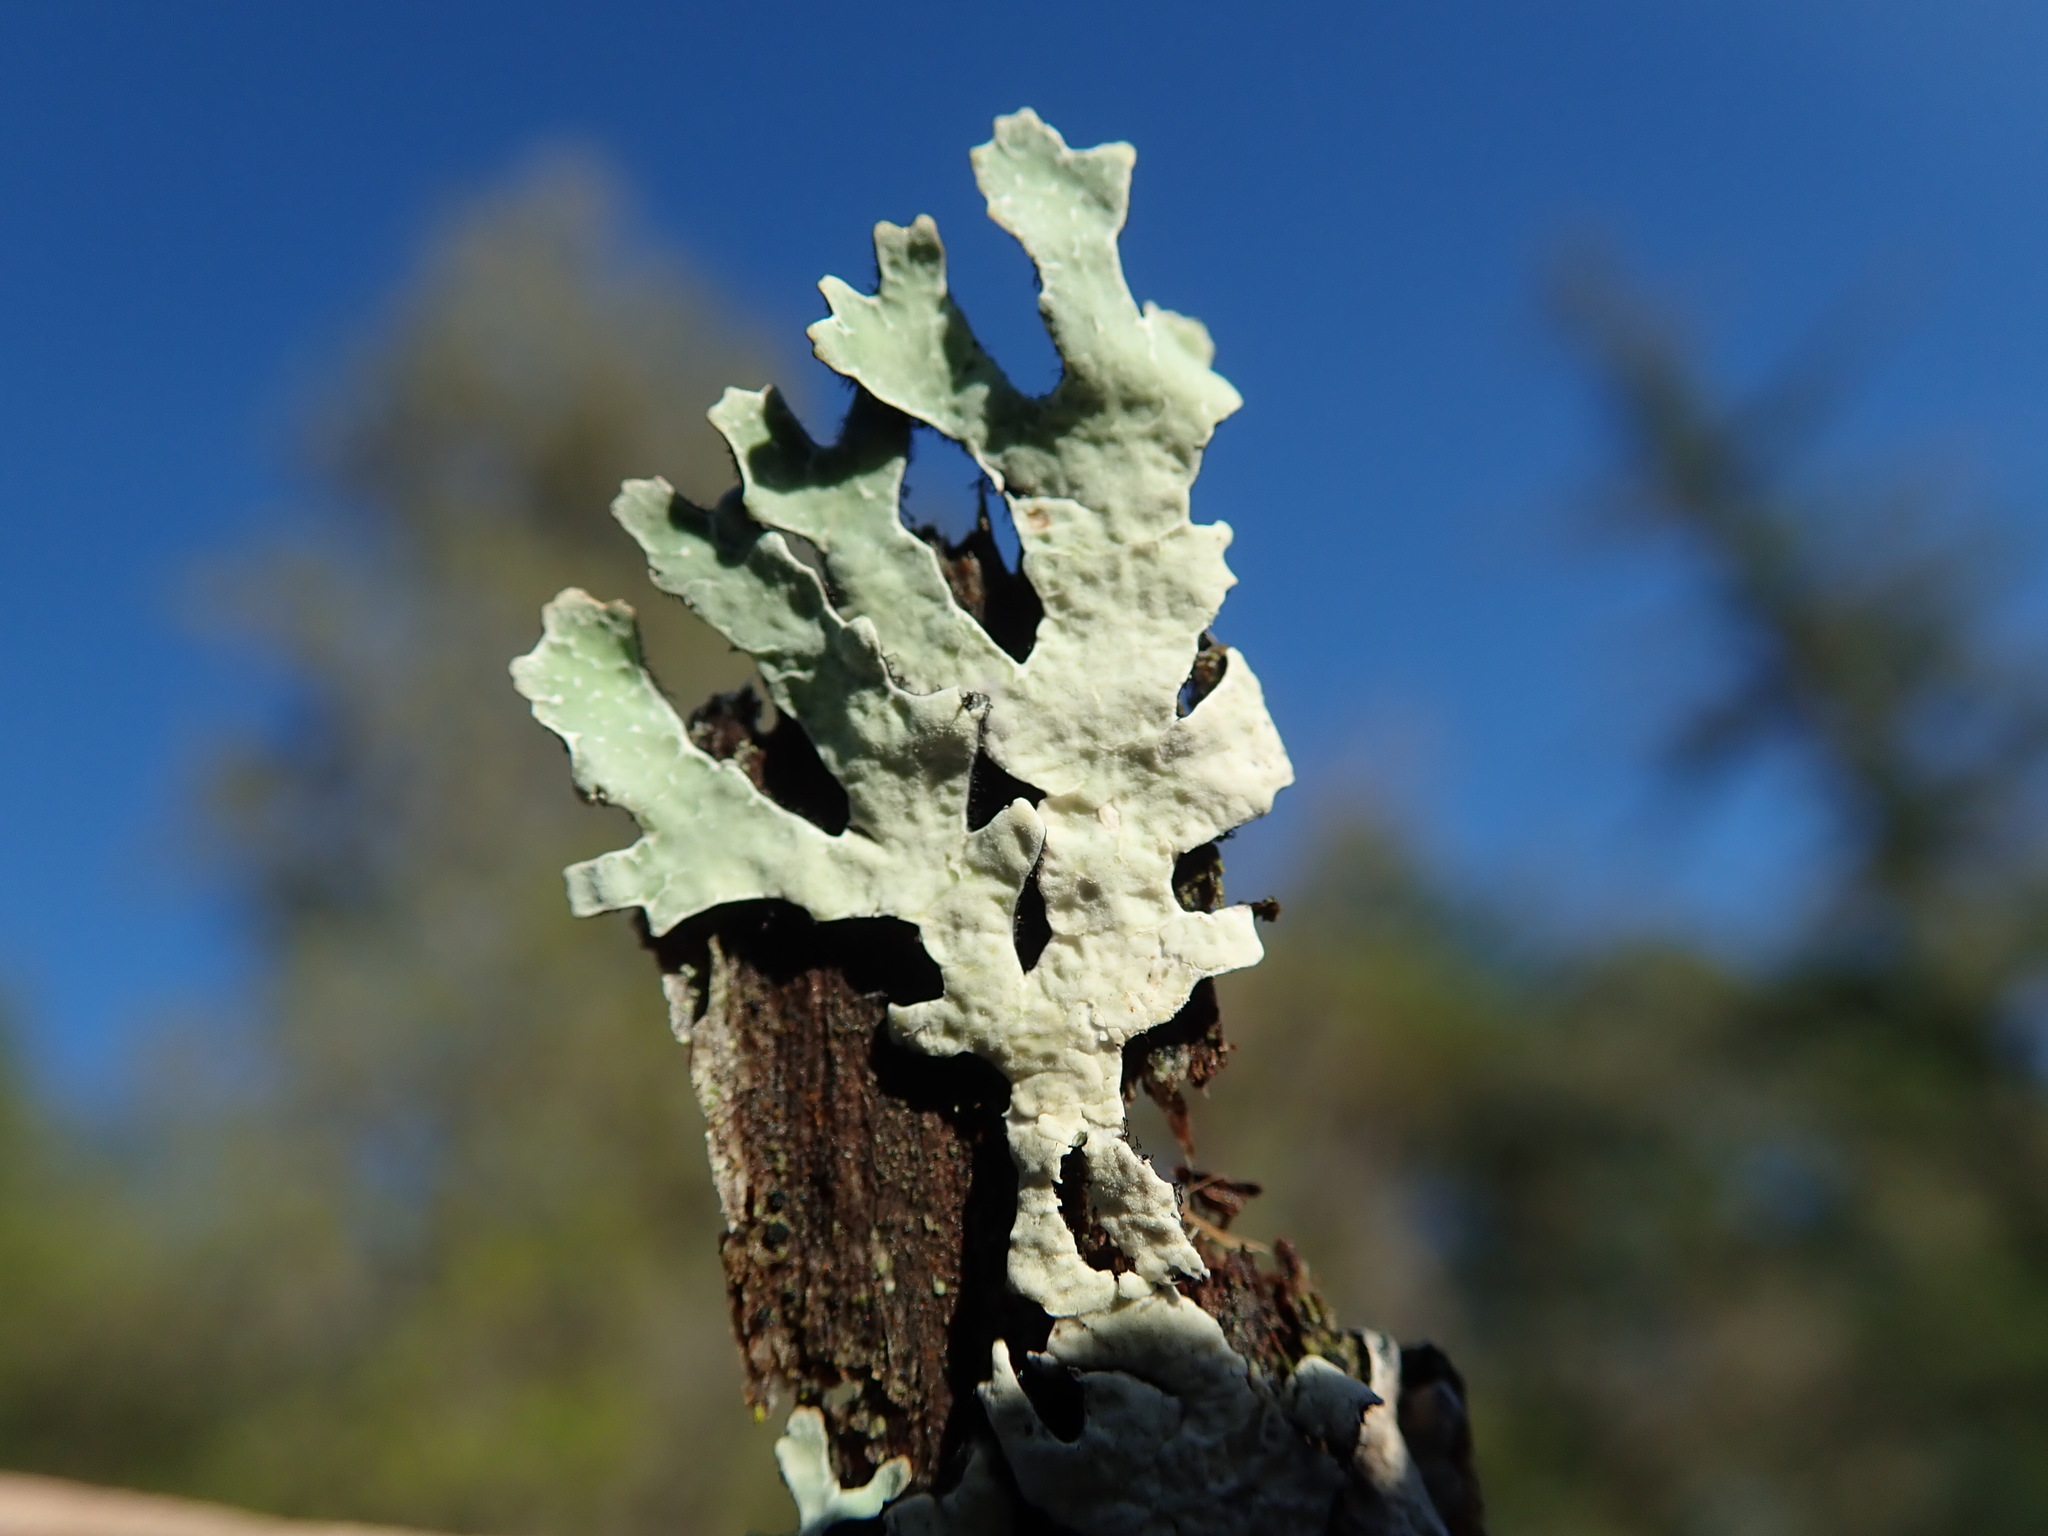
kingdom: Fungi
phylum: Ascomycota
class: Lecanoromycetes
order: Lecanorales
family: Parmeliaceae
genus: Parmelia
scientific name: Parmelia sulcata
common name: Netted shield lichen
